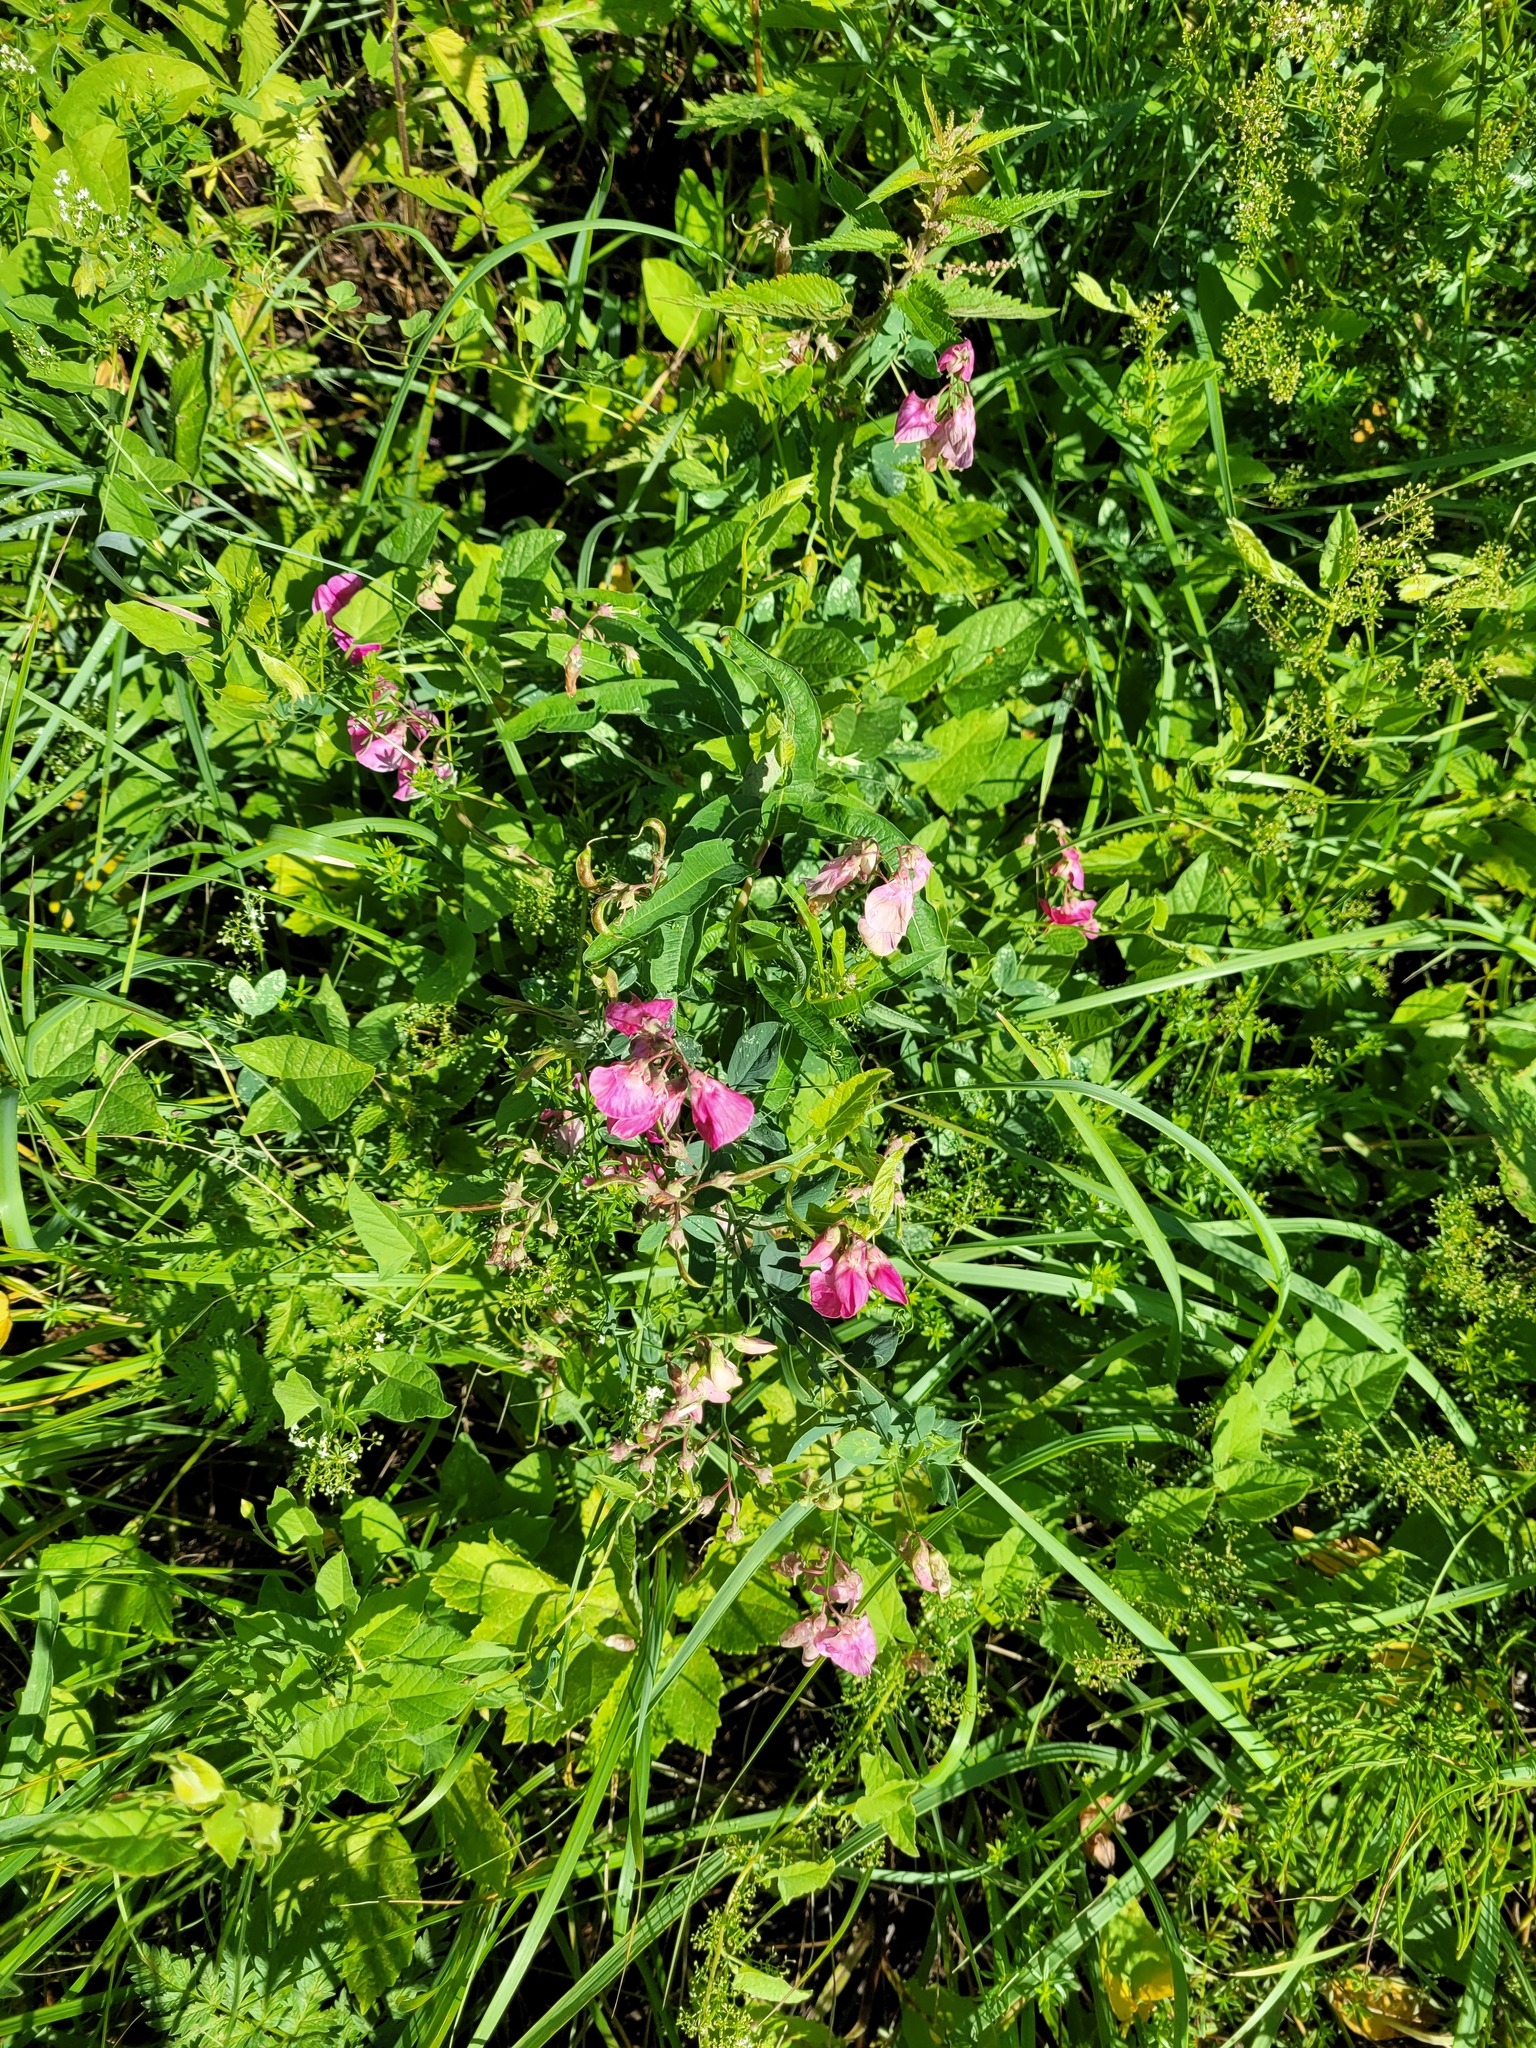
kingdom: Plantae
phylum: Tracheophyta
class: Magnoliopsida
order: Fabales
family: Fabaceae
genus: Lathyrus
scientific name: Lathyrus tuberosus
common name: Tuberous pea
